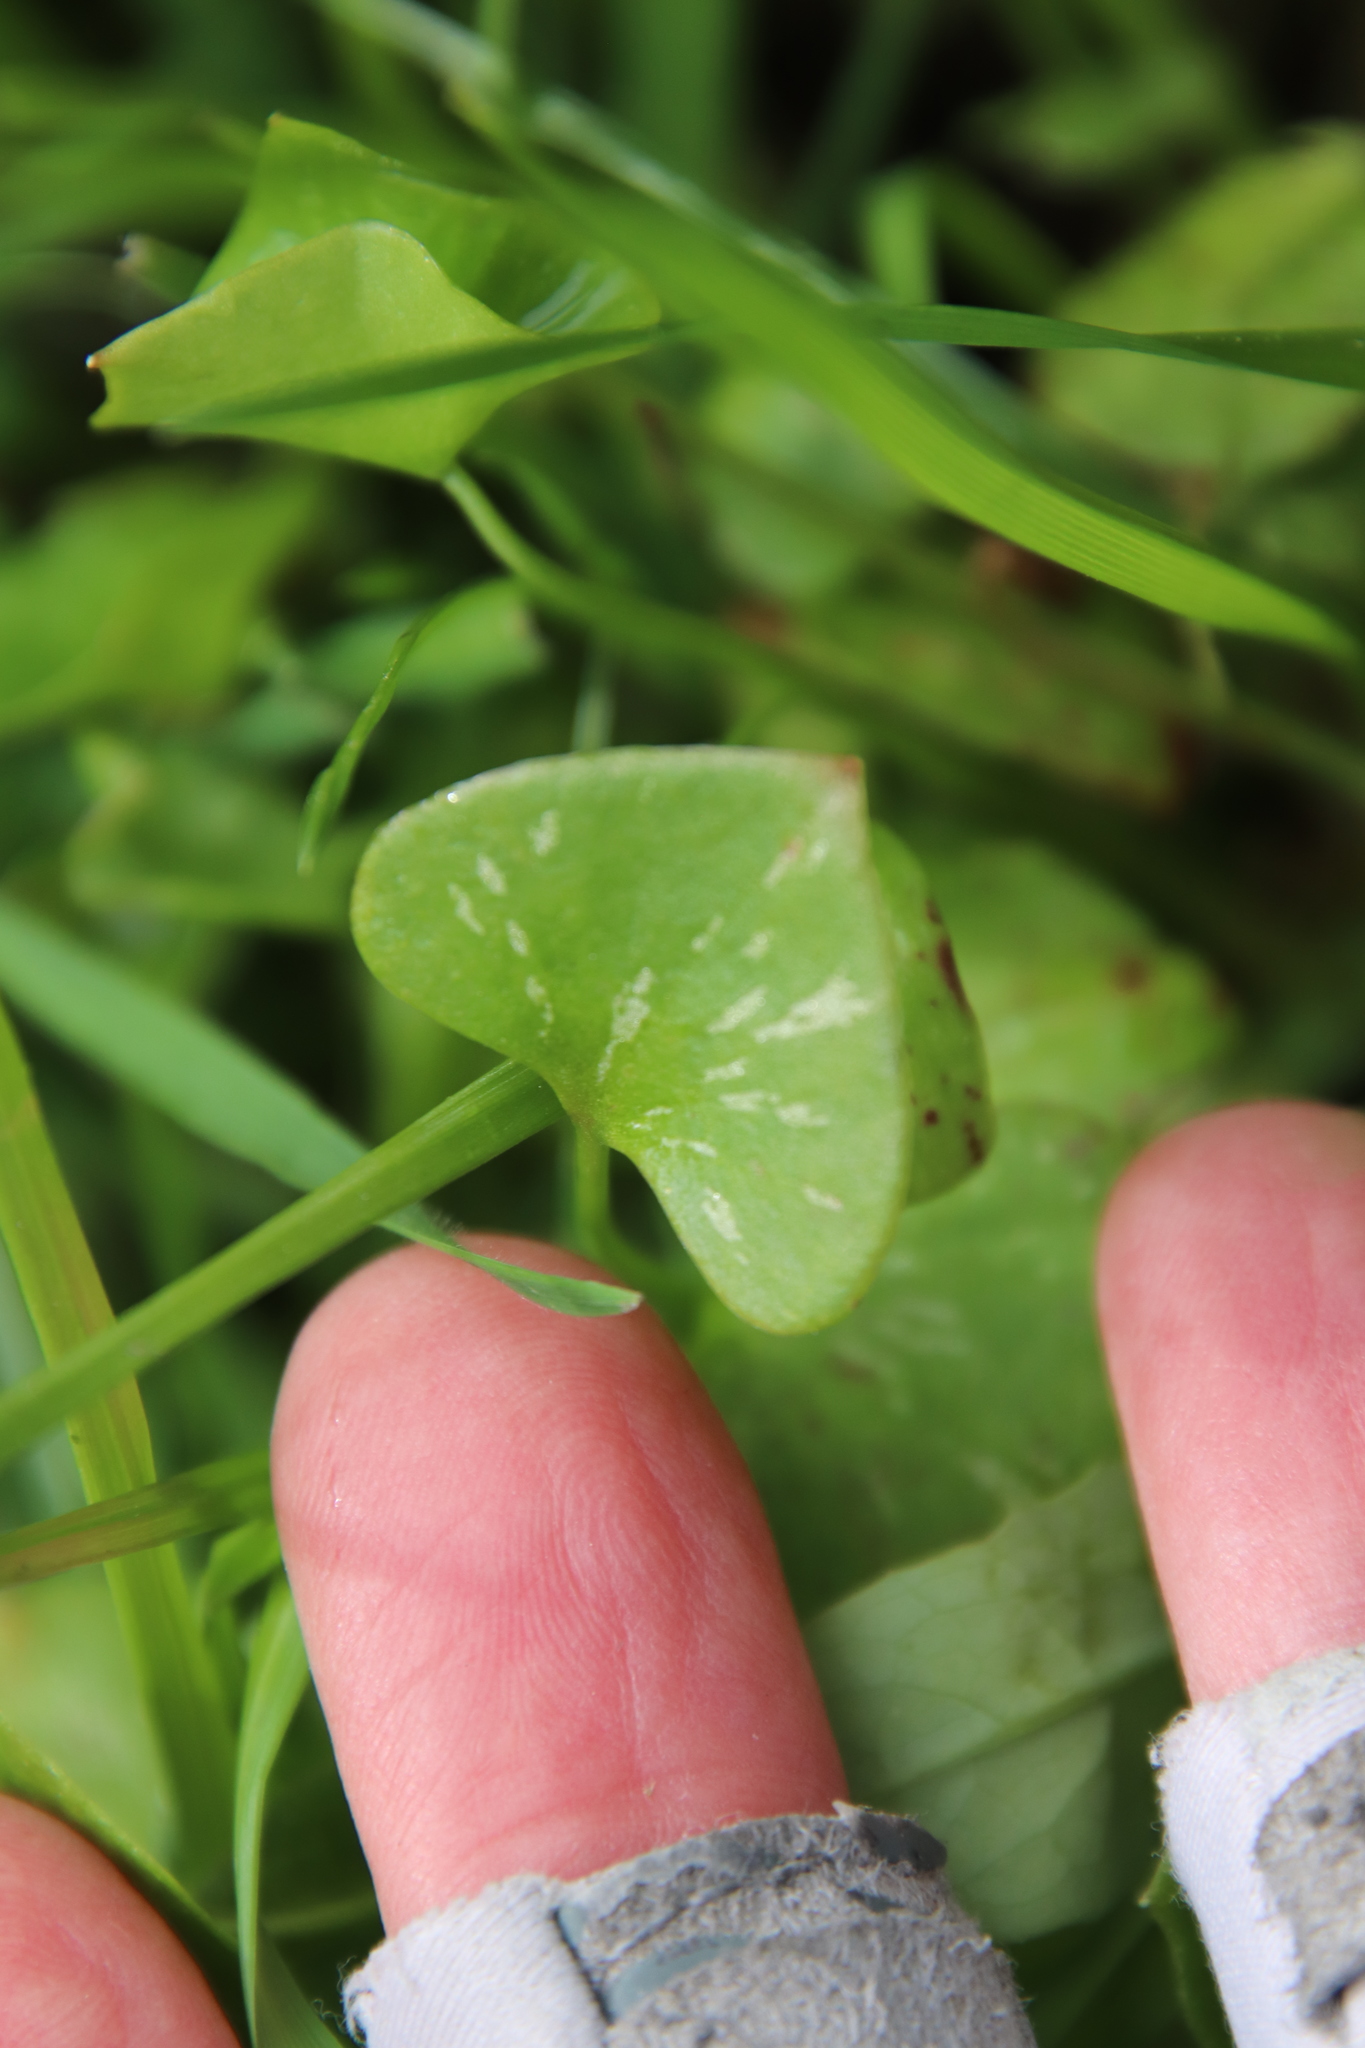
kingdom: Plantae
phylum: Tracheophyta
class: Magnoliopsida
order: Caryophyllales
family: Montiaceae
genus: Claytonia
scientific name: Claytonia perfoliata
